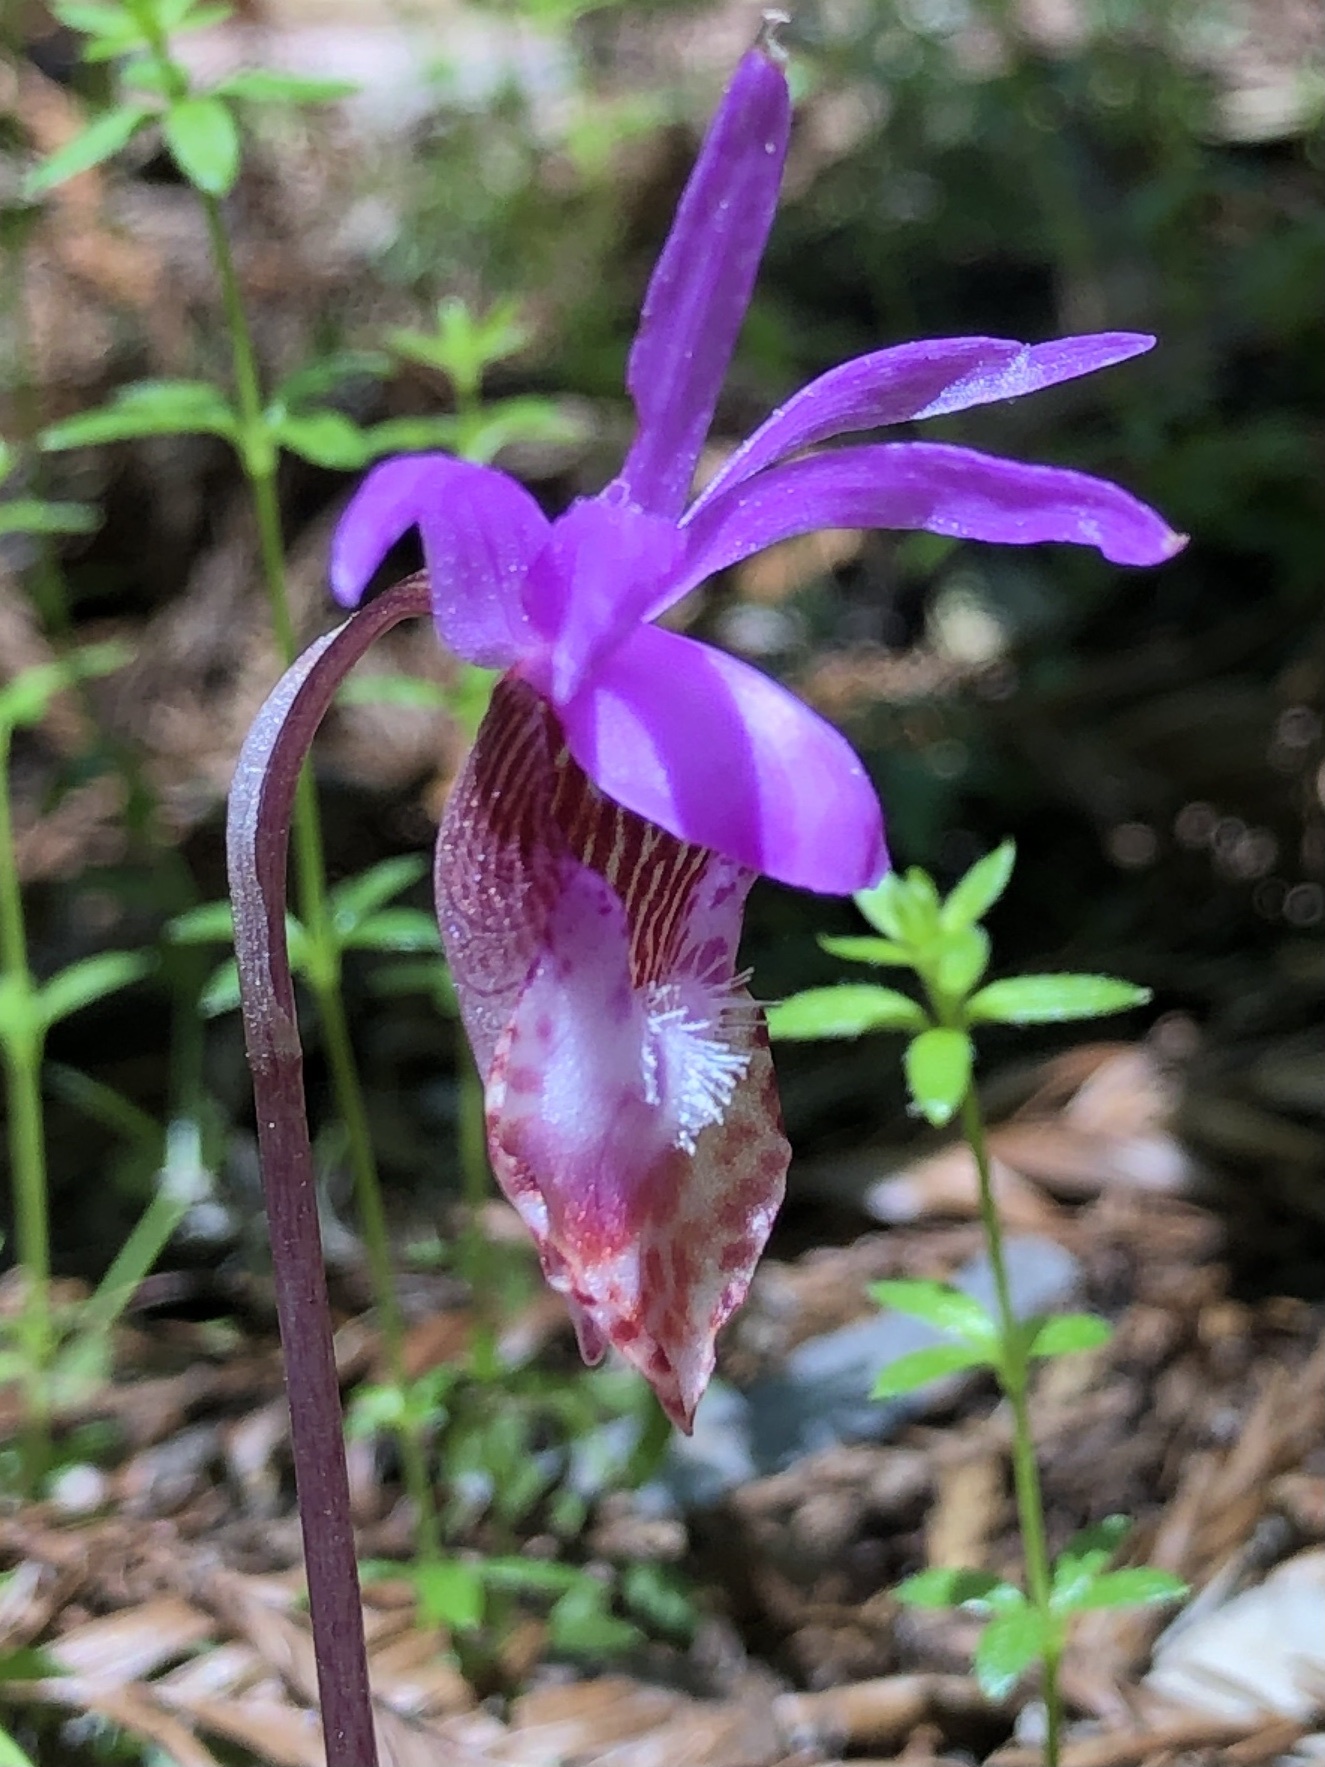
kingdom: Plantae
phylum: Tracheophyta
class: Liliopsida
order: Asparagales
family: Orchidaceae
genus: Calypso
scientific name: Calypso bulbosa
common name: Calypso
